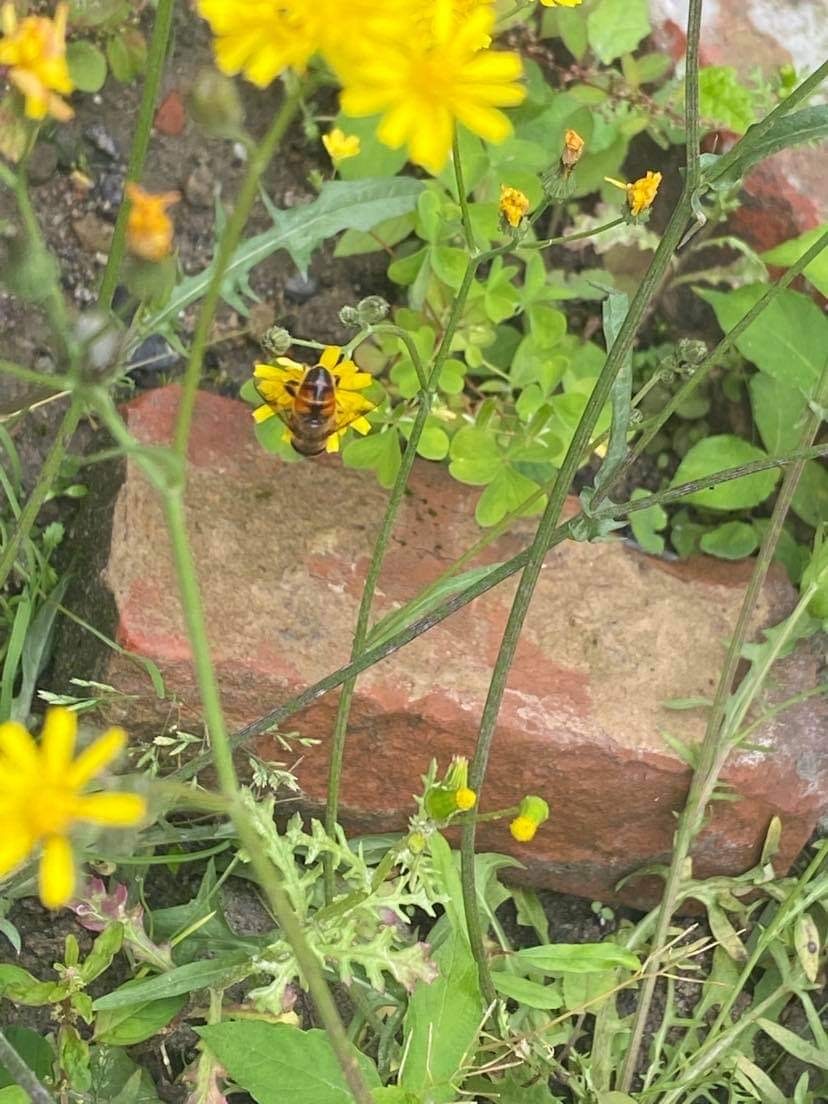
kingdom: Animalia
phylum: Arthropoda
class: Insecta
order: Diptera
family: Syrphidae
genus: Eristalis
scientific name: Eristalis tenax
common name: Drone fly
